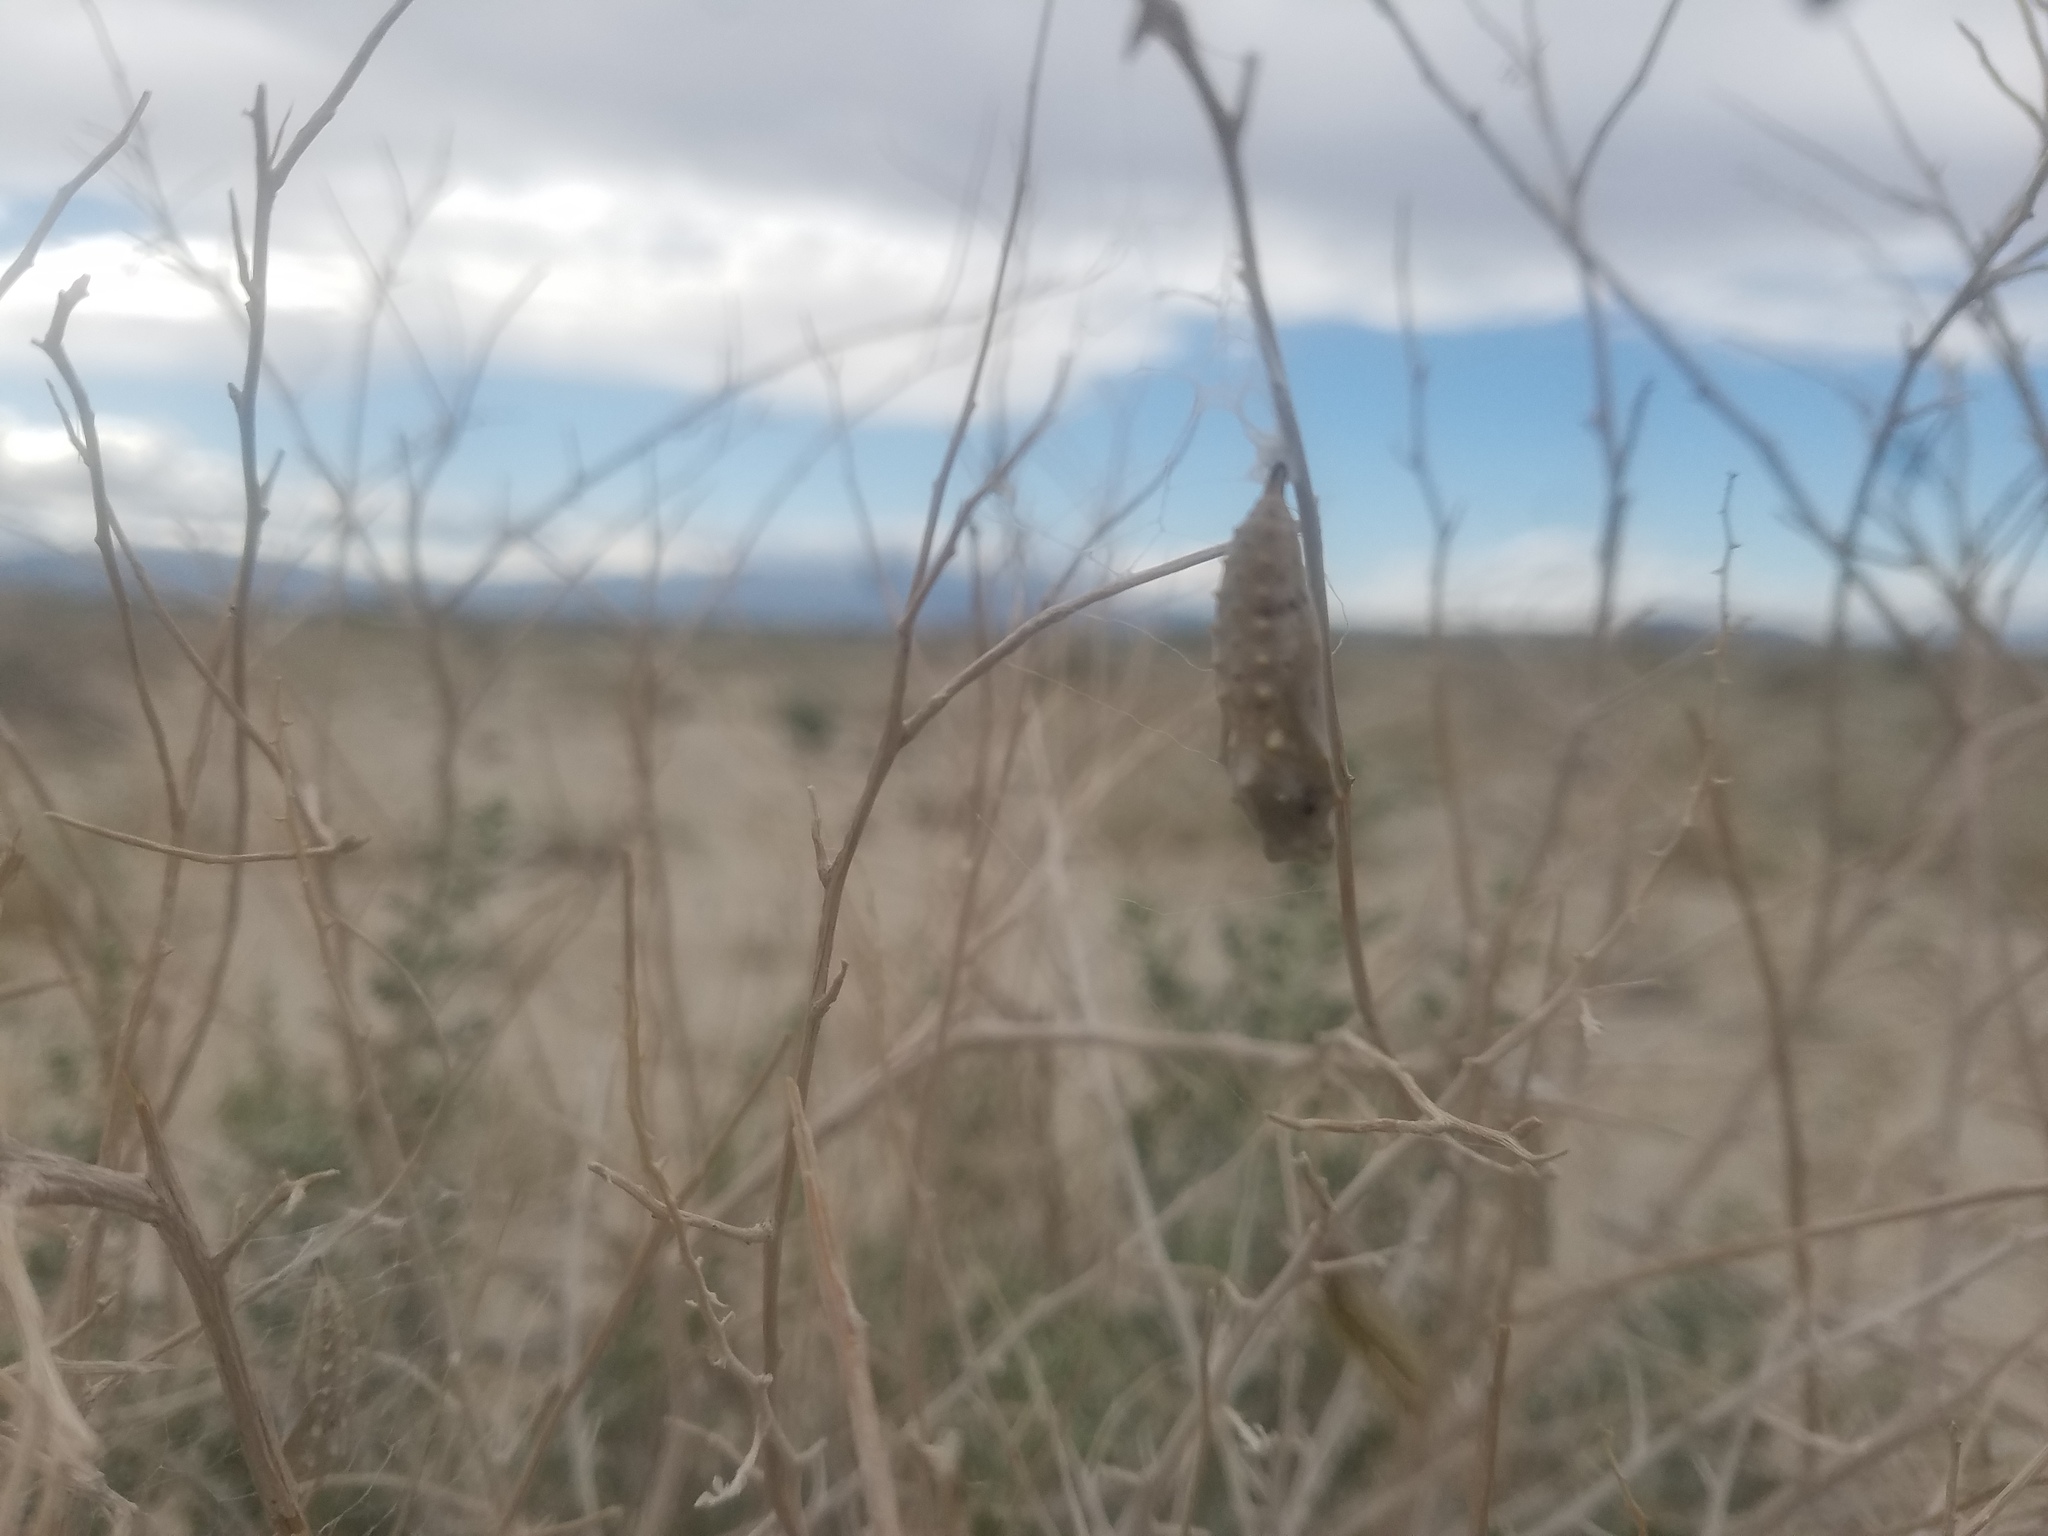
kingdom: Animalia
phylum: Arthropoda
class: Insecta
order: Lepidoptera
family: Nymphalidae
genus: Vanessa
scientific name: Vanessa cardui
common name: Painted lady
